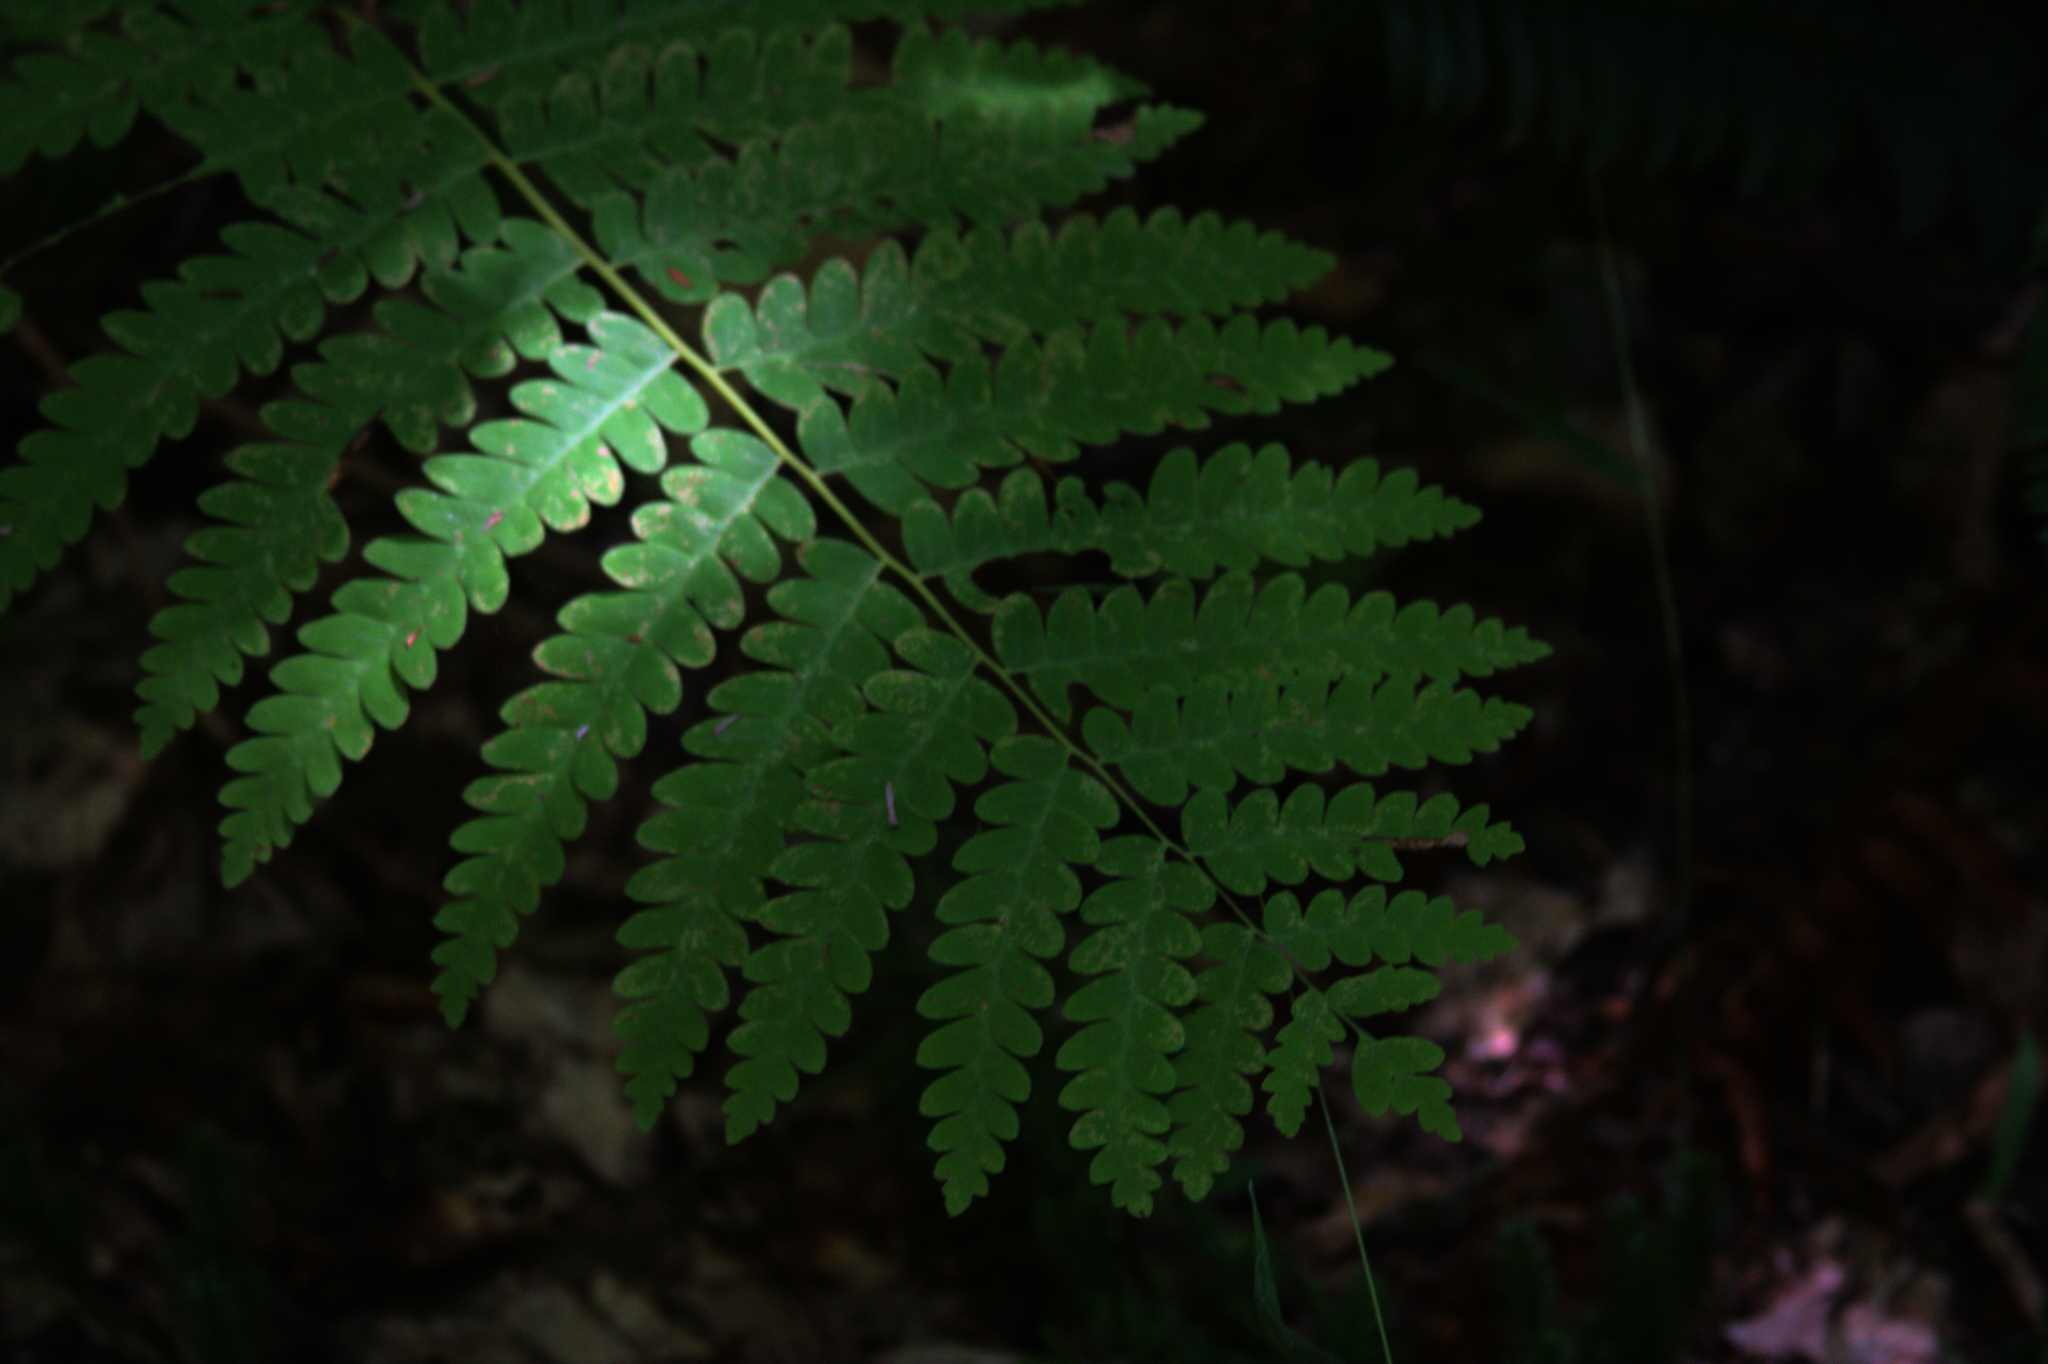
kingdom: Plantae
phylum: Tracheophyta
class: Polypodiopsida
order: Osmundales
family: Osmundaceae
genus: Claytosmunda
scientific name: Claytosmunda claytoniana
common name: Clayton's fern
